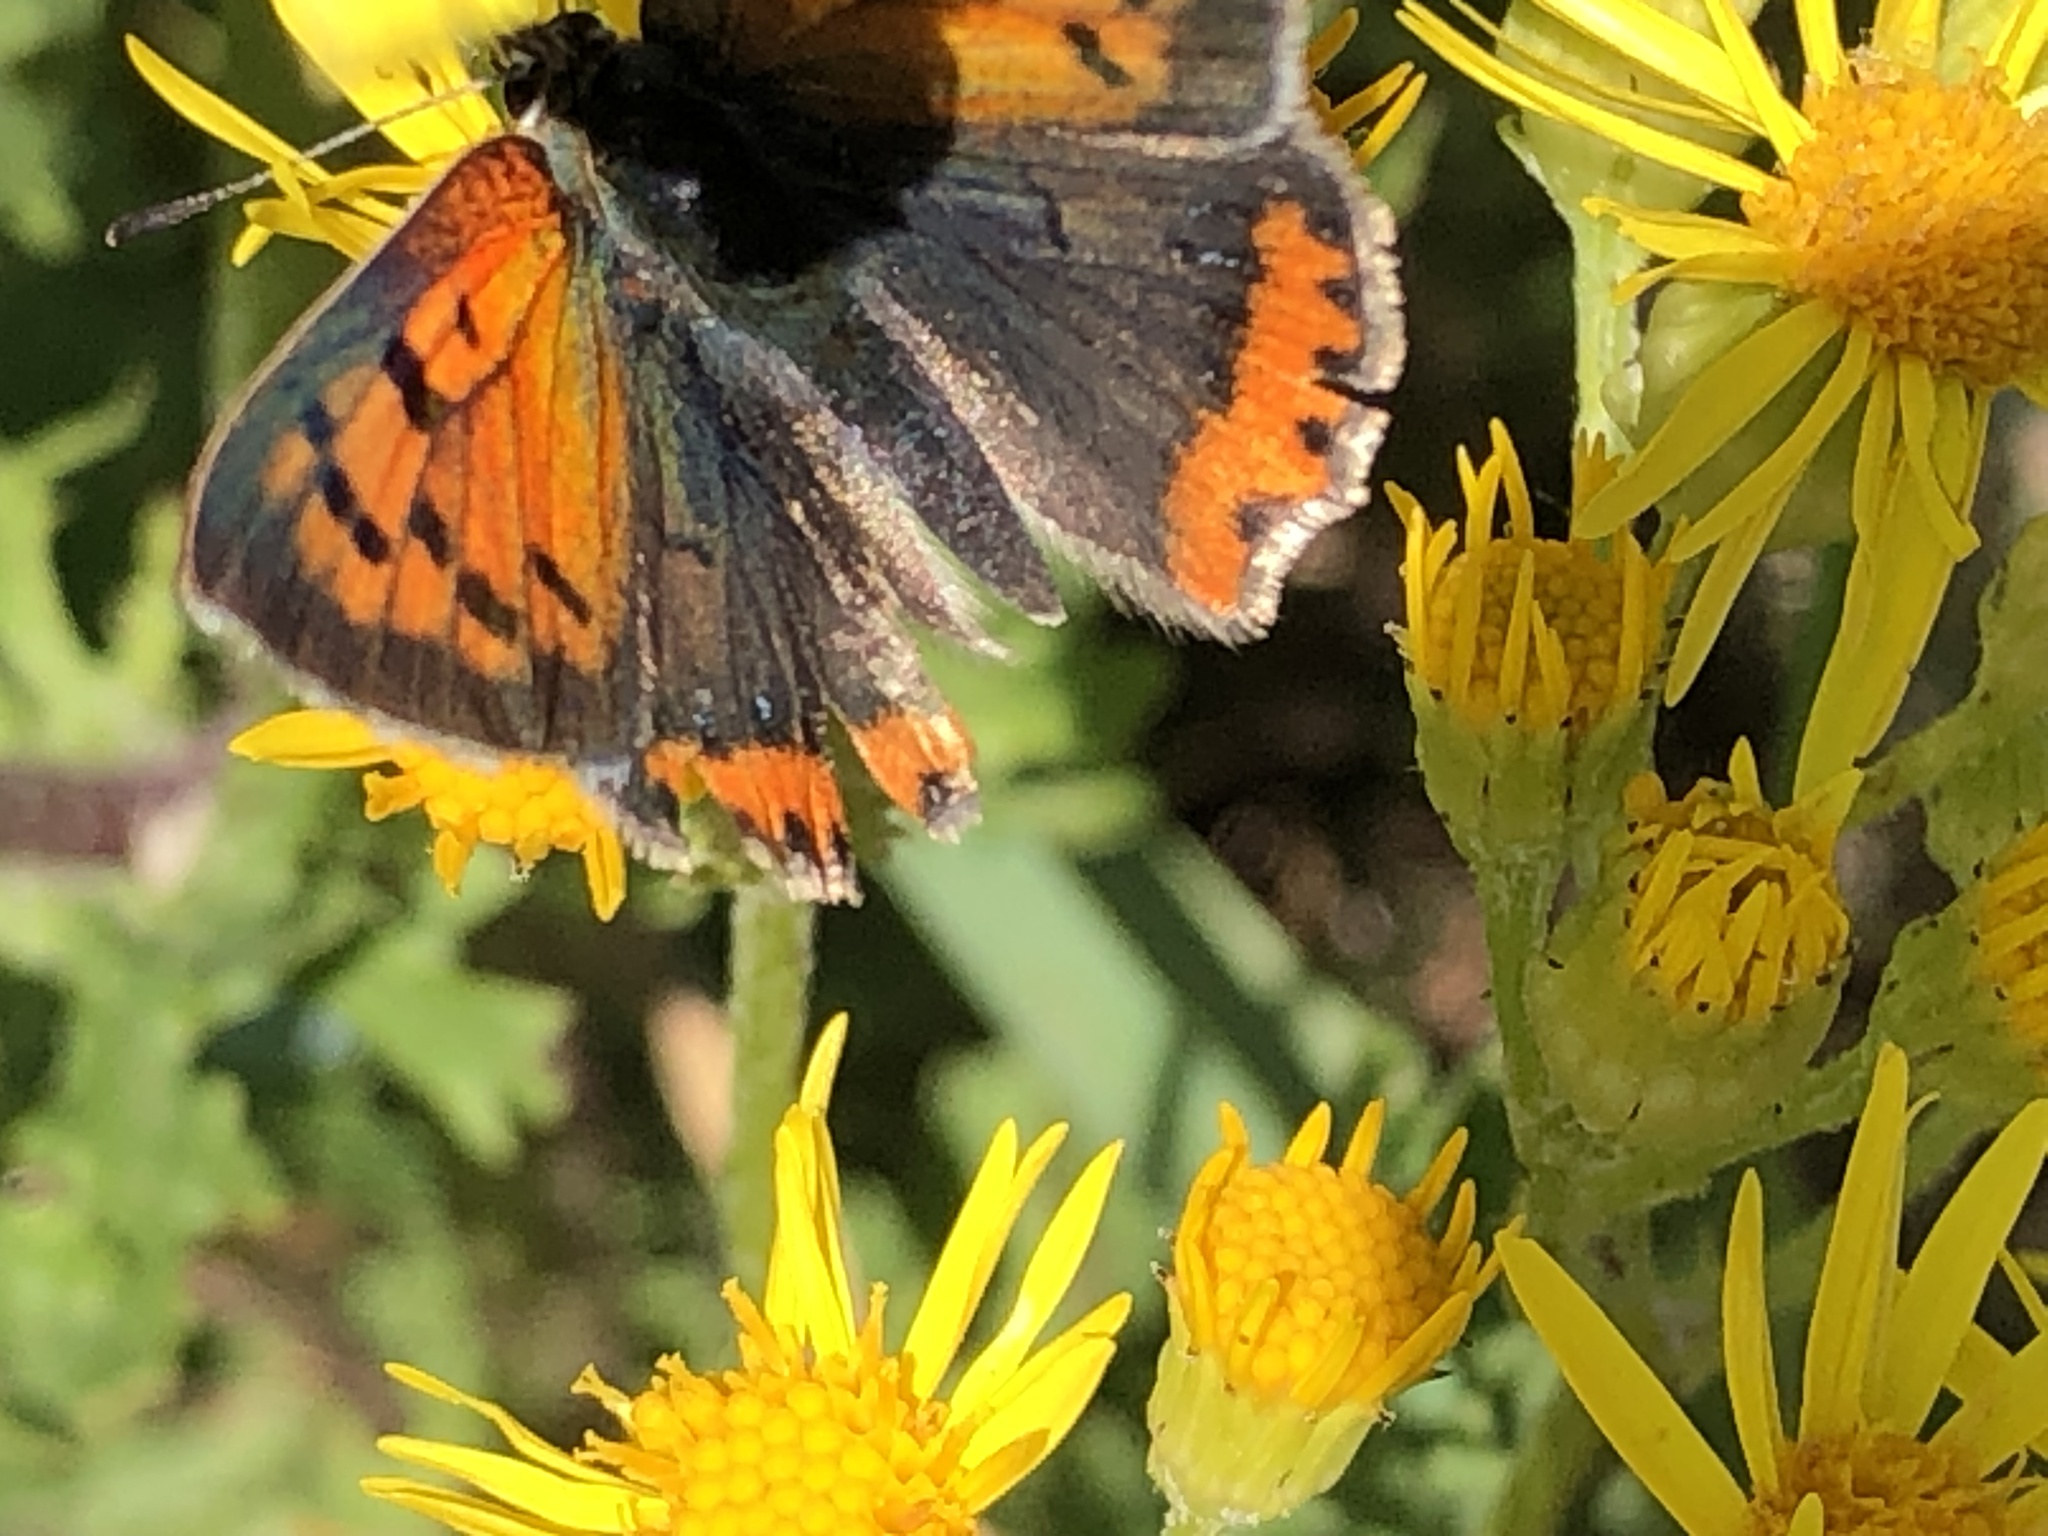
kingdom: Animalia
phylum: Arthropoda
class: Insecta
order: Lepidoptera
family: Lycaenidae
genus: Lycaena
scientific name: Lycaena phlaeas
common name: Small copper
